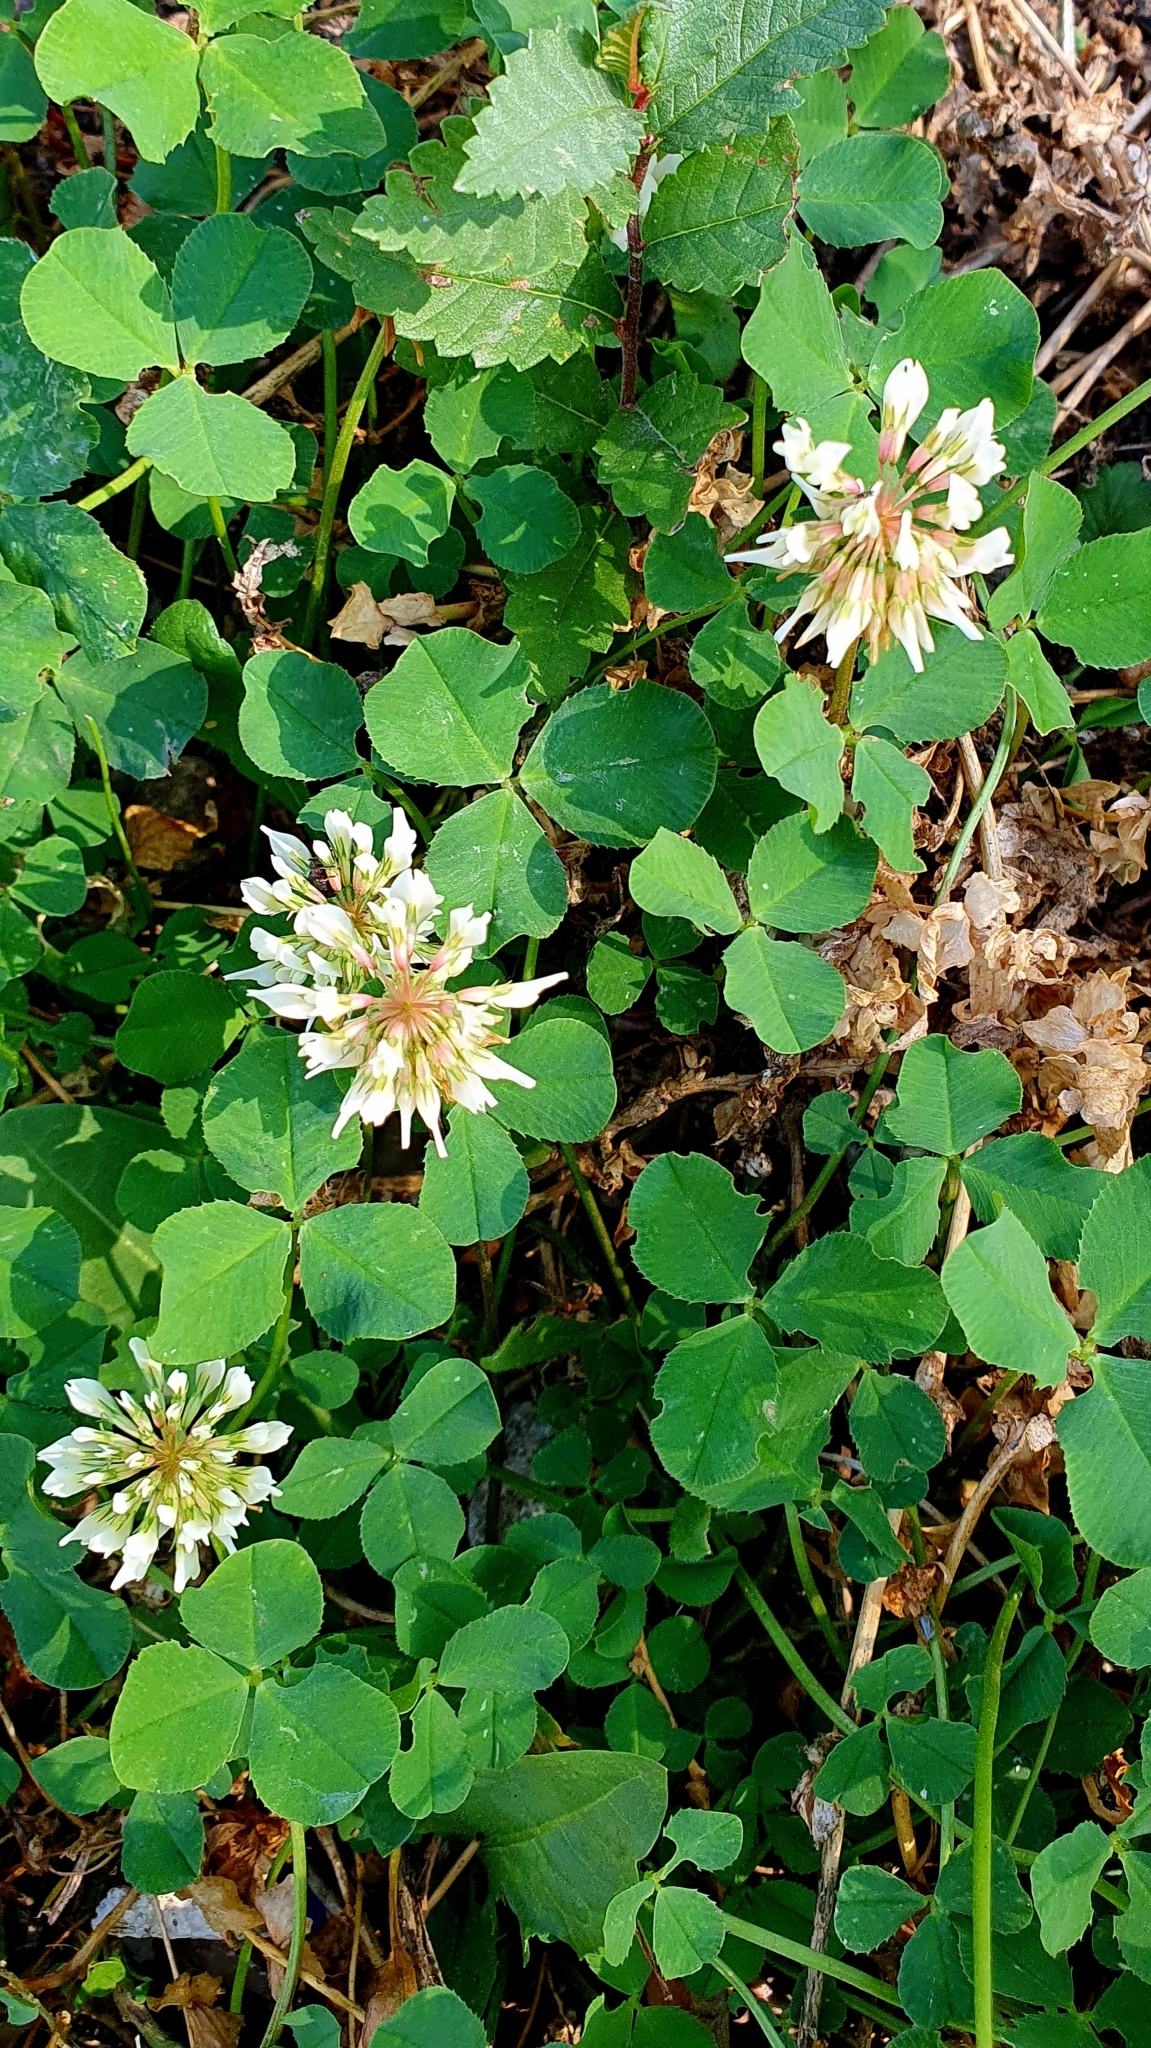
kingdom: Plantae
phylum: Tracheophyta
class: Magnoliopsida
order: Fabales
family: Fabaceae
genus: Trifolium
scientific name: Trifolium repens
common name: White clover
